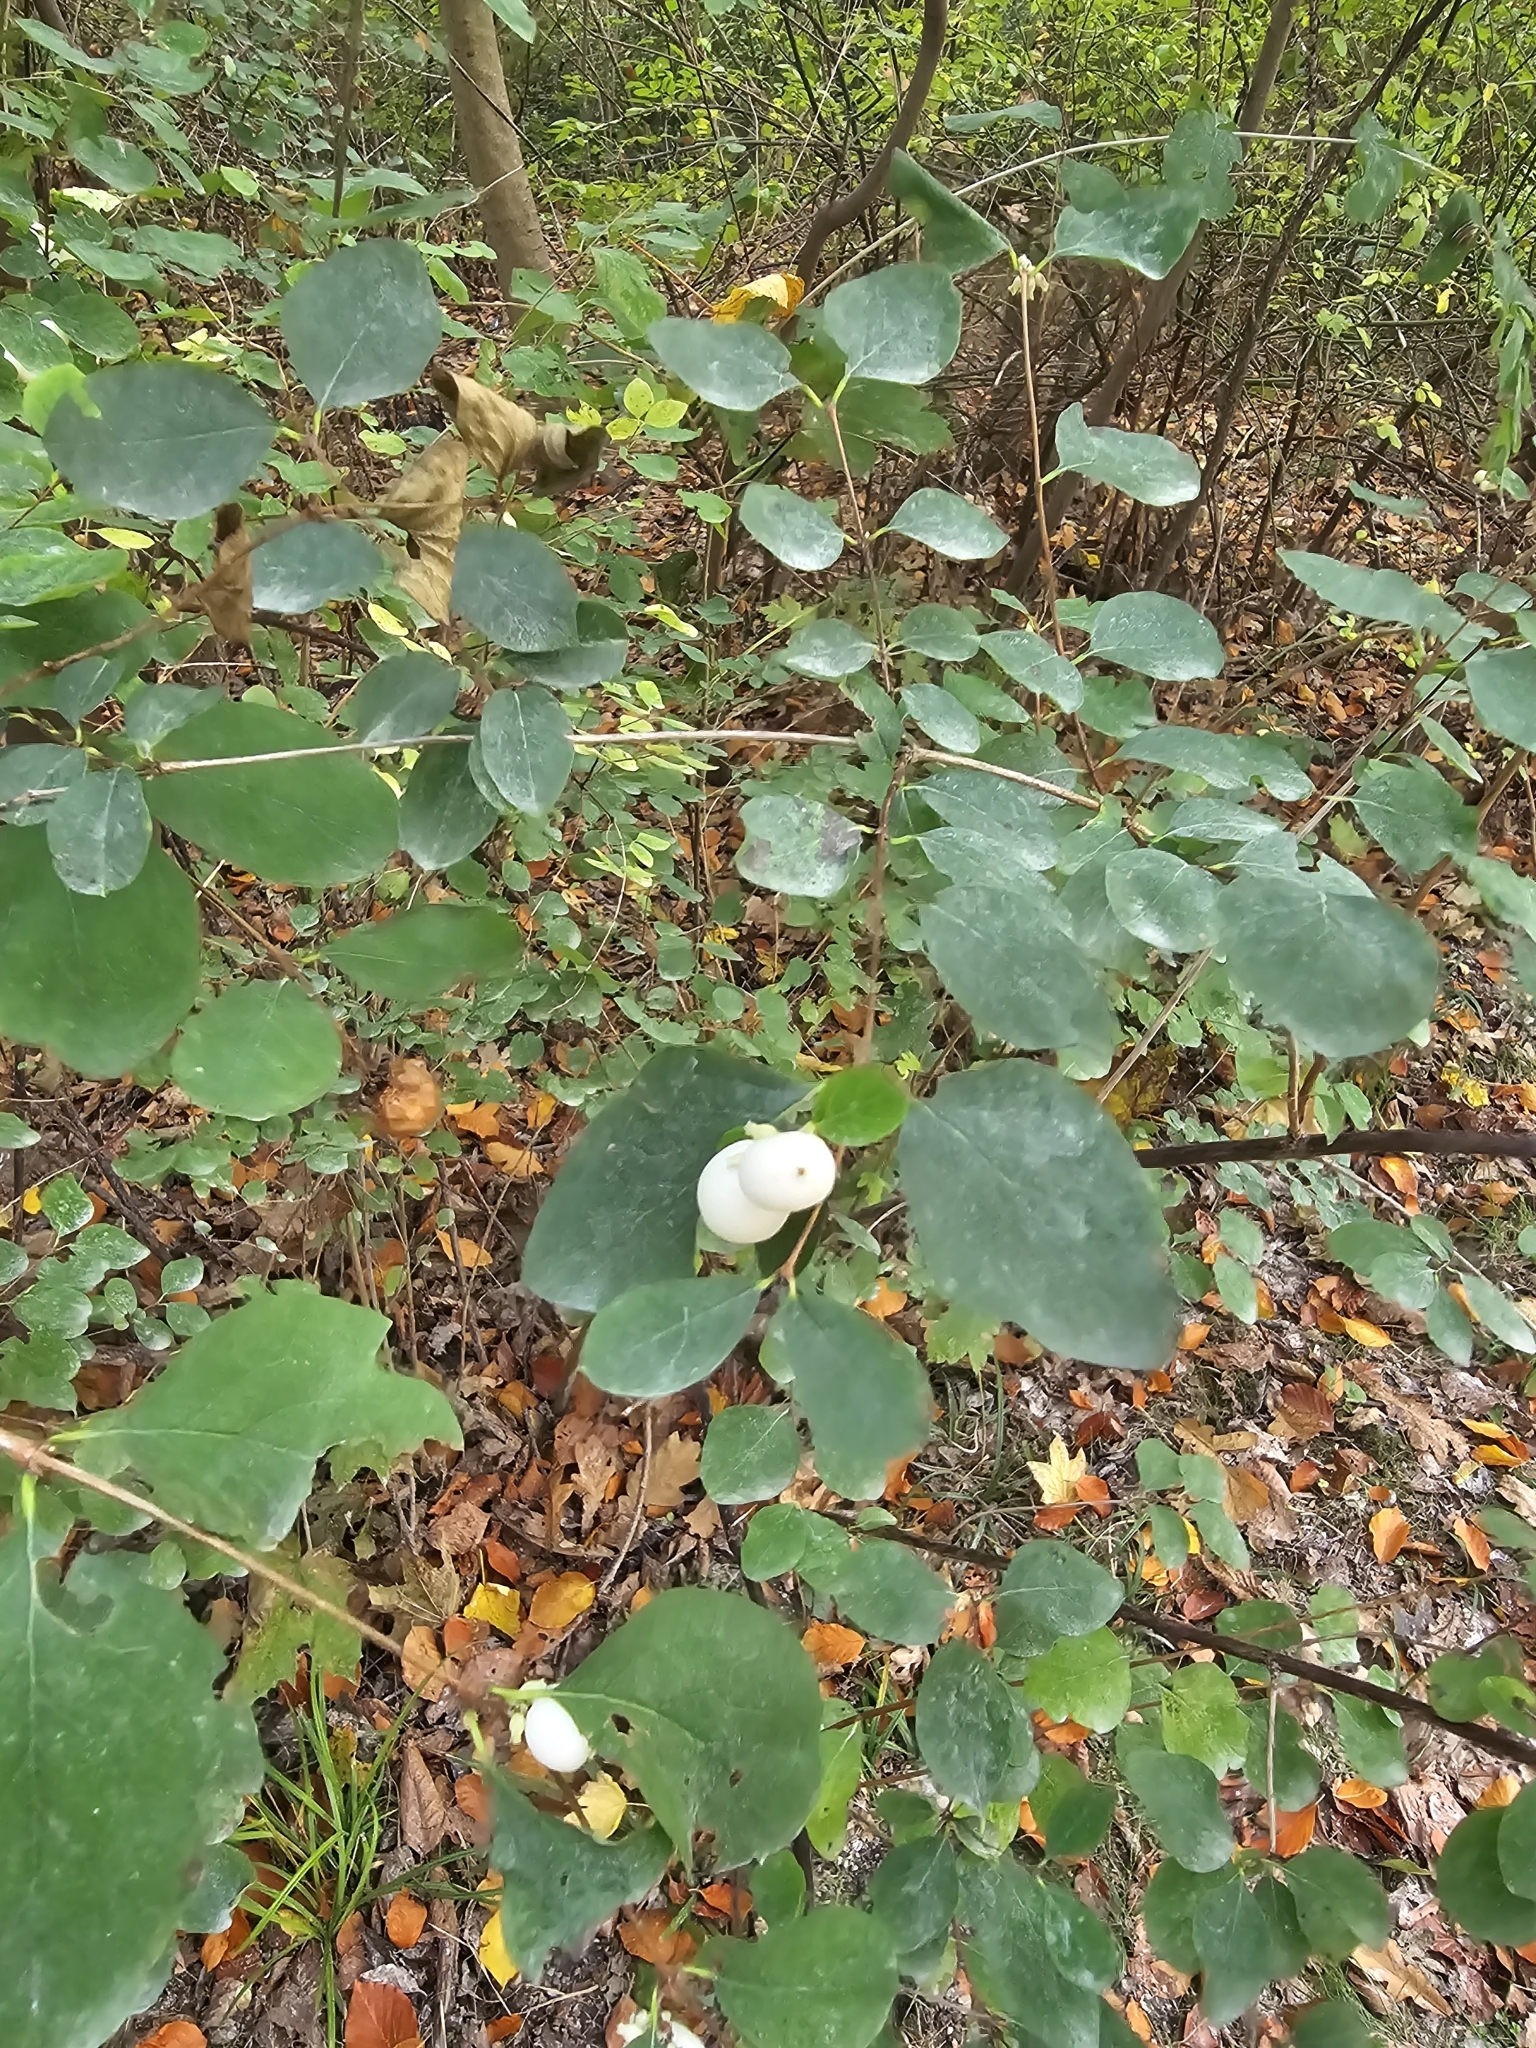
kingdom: Plantae
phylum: Tracheophyta
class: Magnoliopsida
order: Dipsacales
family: Caprifoliaceae
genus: Symphoricarpos
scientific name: Symphoricarpos albus
